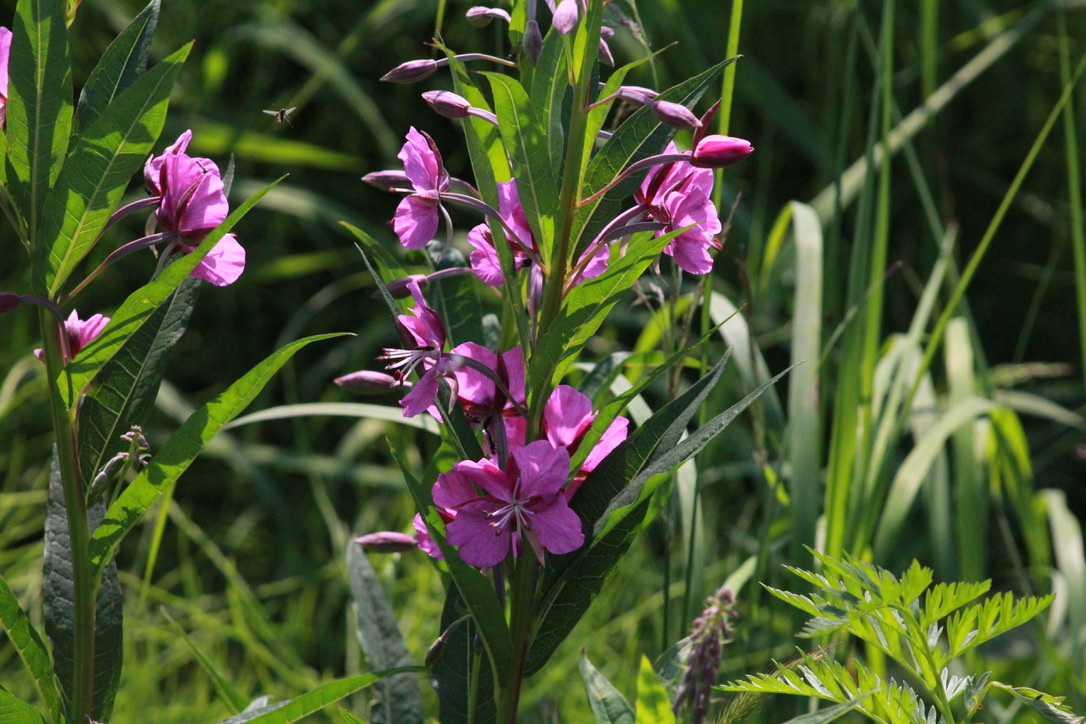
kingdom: Plantae
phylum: Tracheophyta
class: Magnoliopsida
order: Myrtales
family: Onagraceae
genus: Chamaenerion
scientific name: Chamaenerion angustifolium
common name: Fireweed
